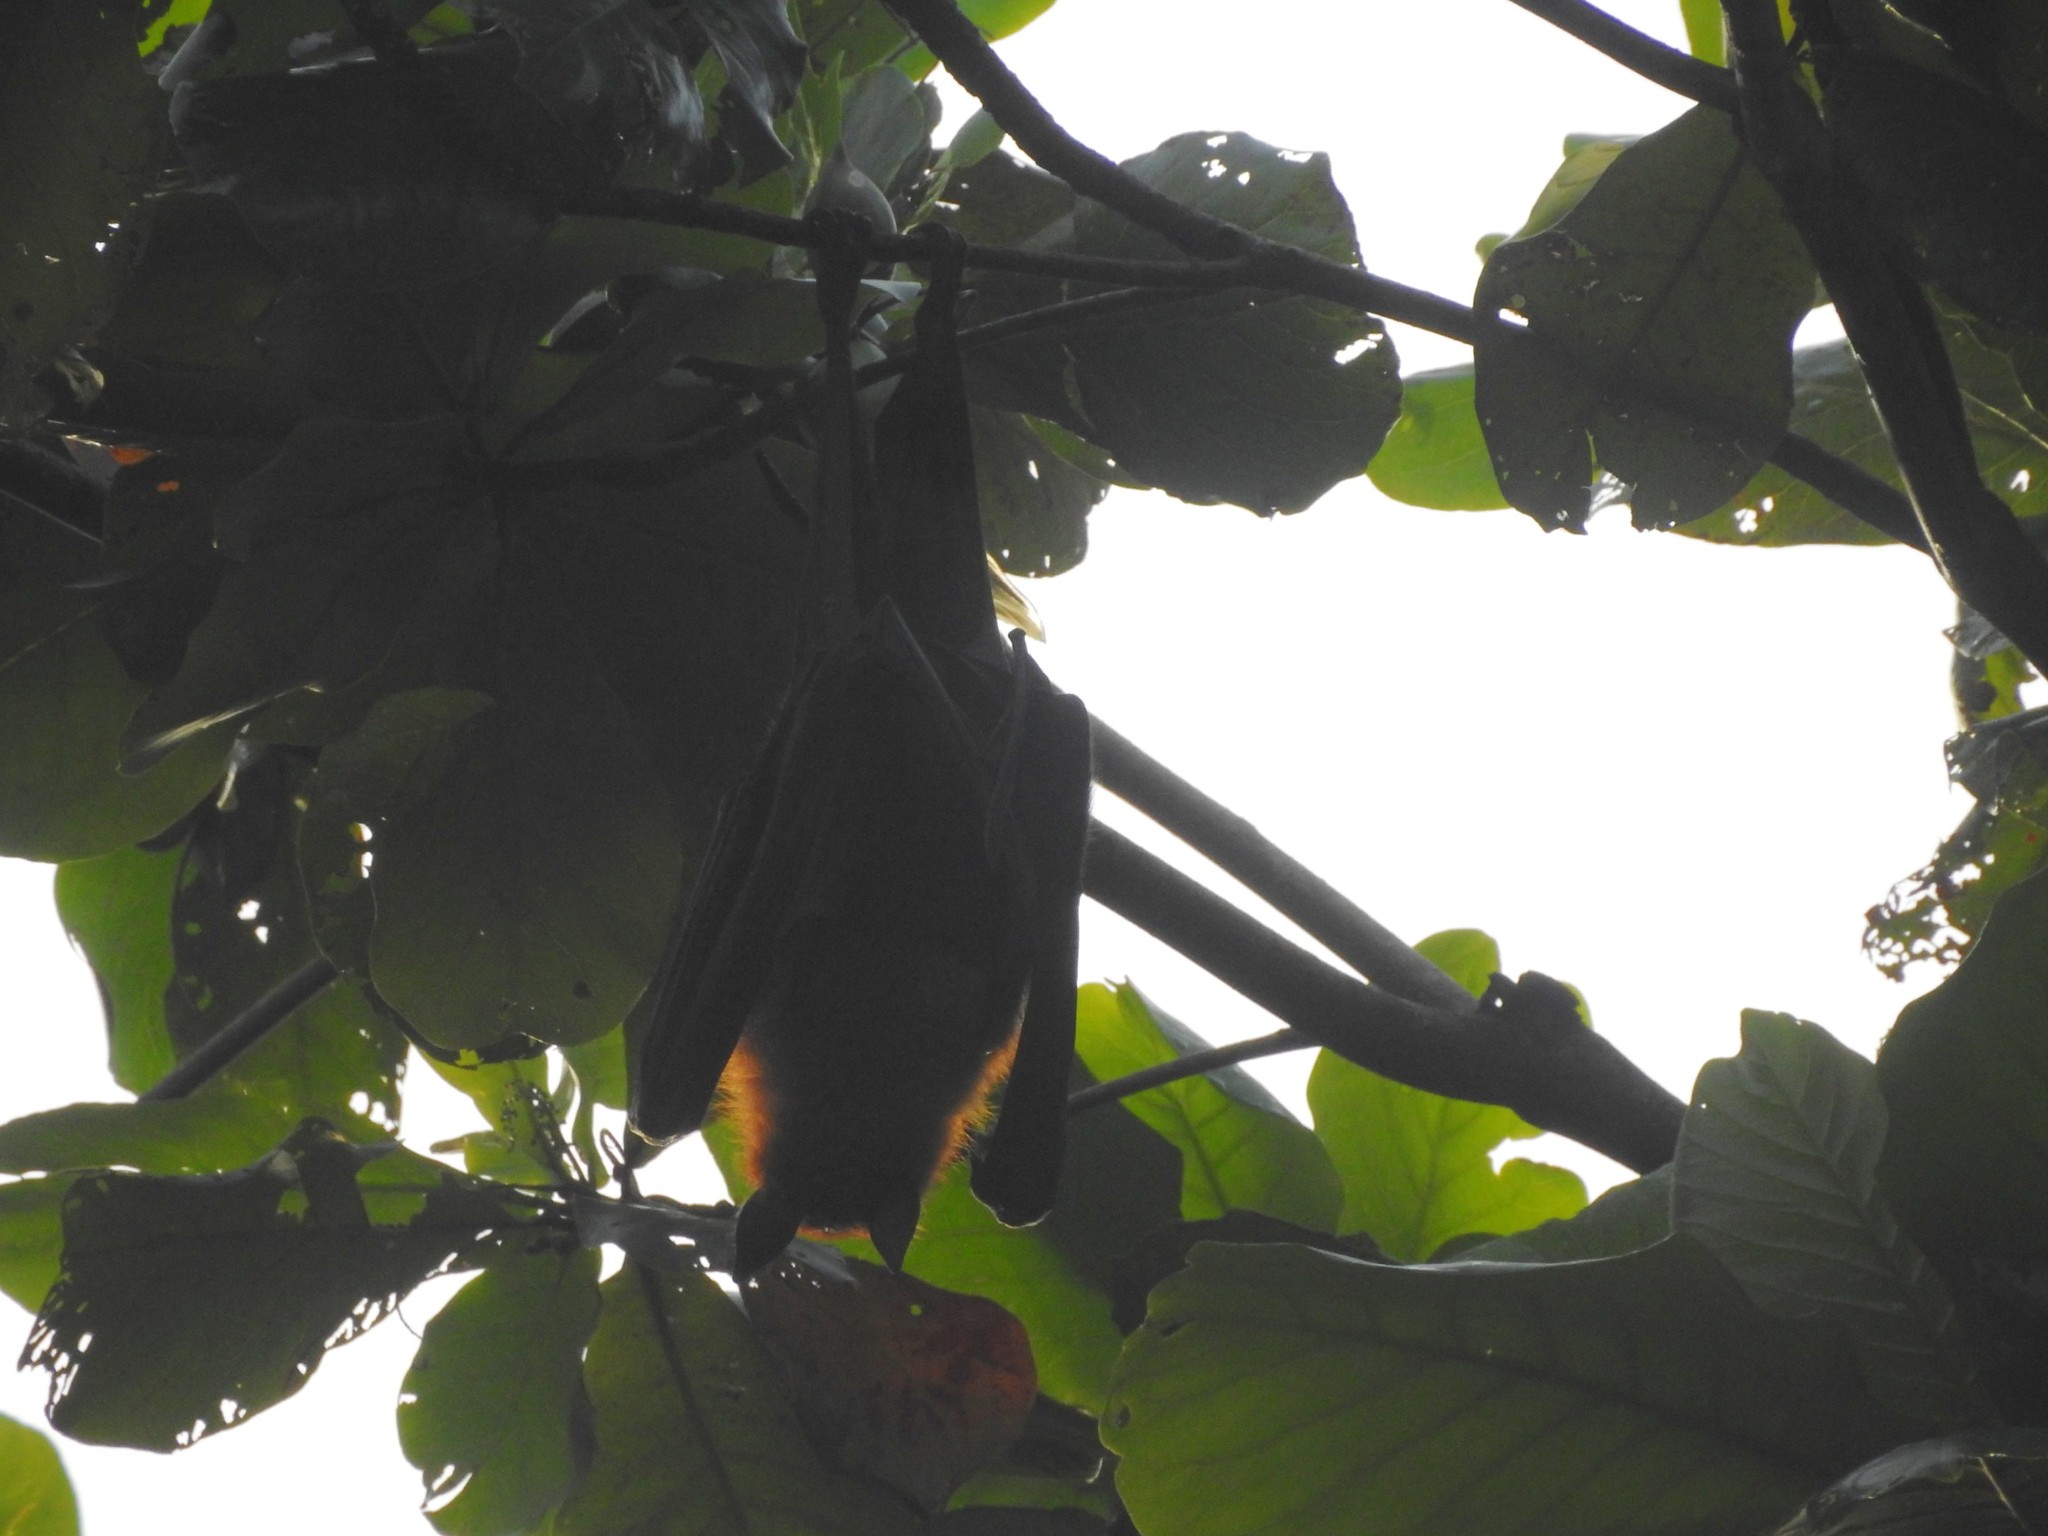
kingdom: Animalia
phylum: Chordata
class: Mammalia
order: Chiroptera
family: Pteropodidae
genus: Pteropus
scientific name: Pteropus vampyrus
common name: Large flying fox
